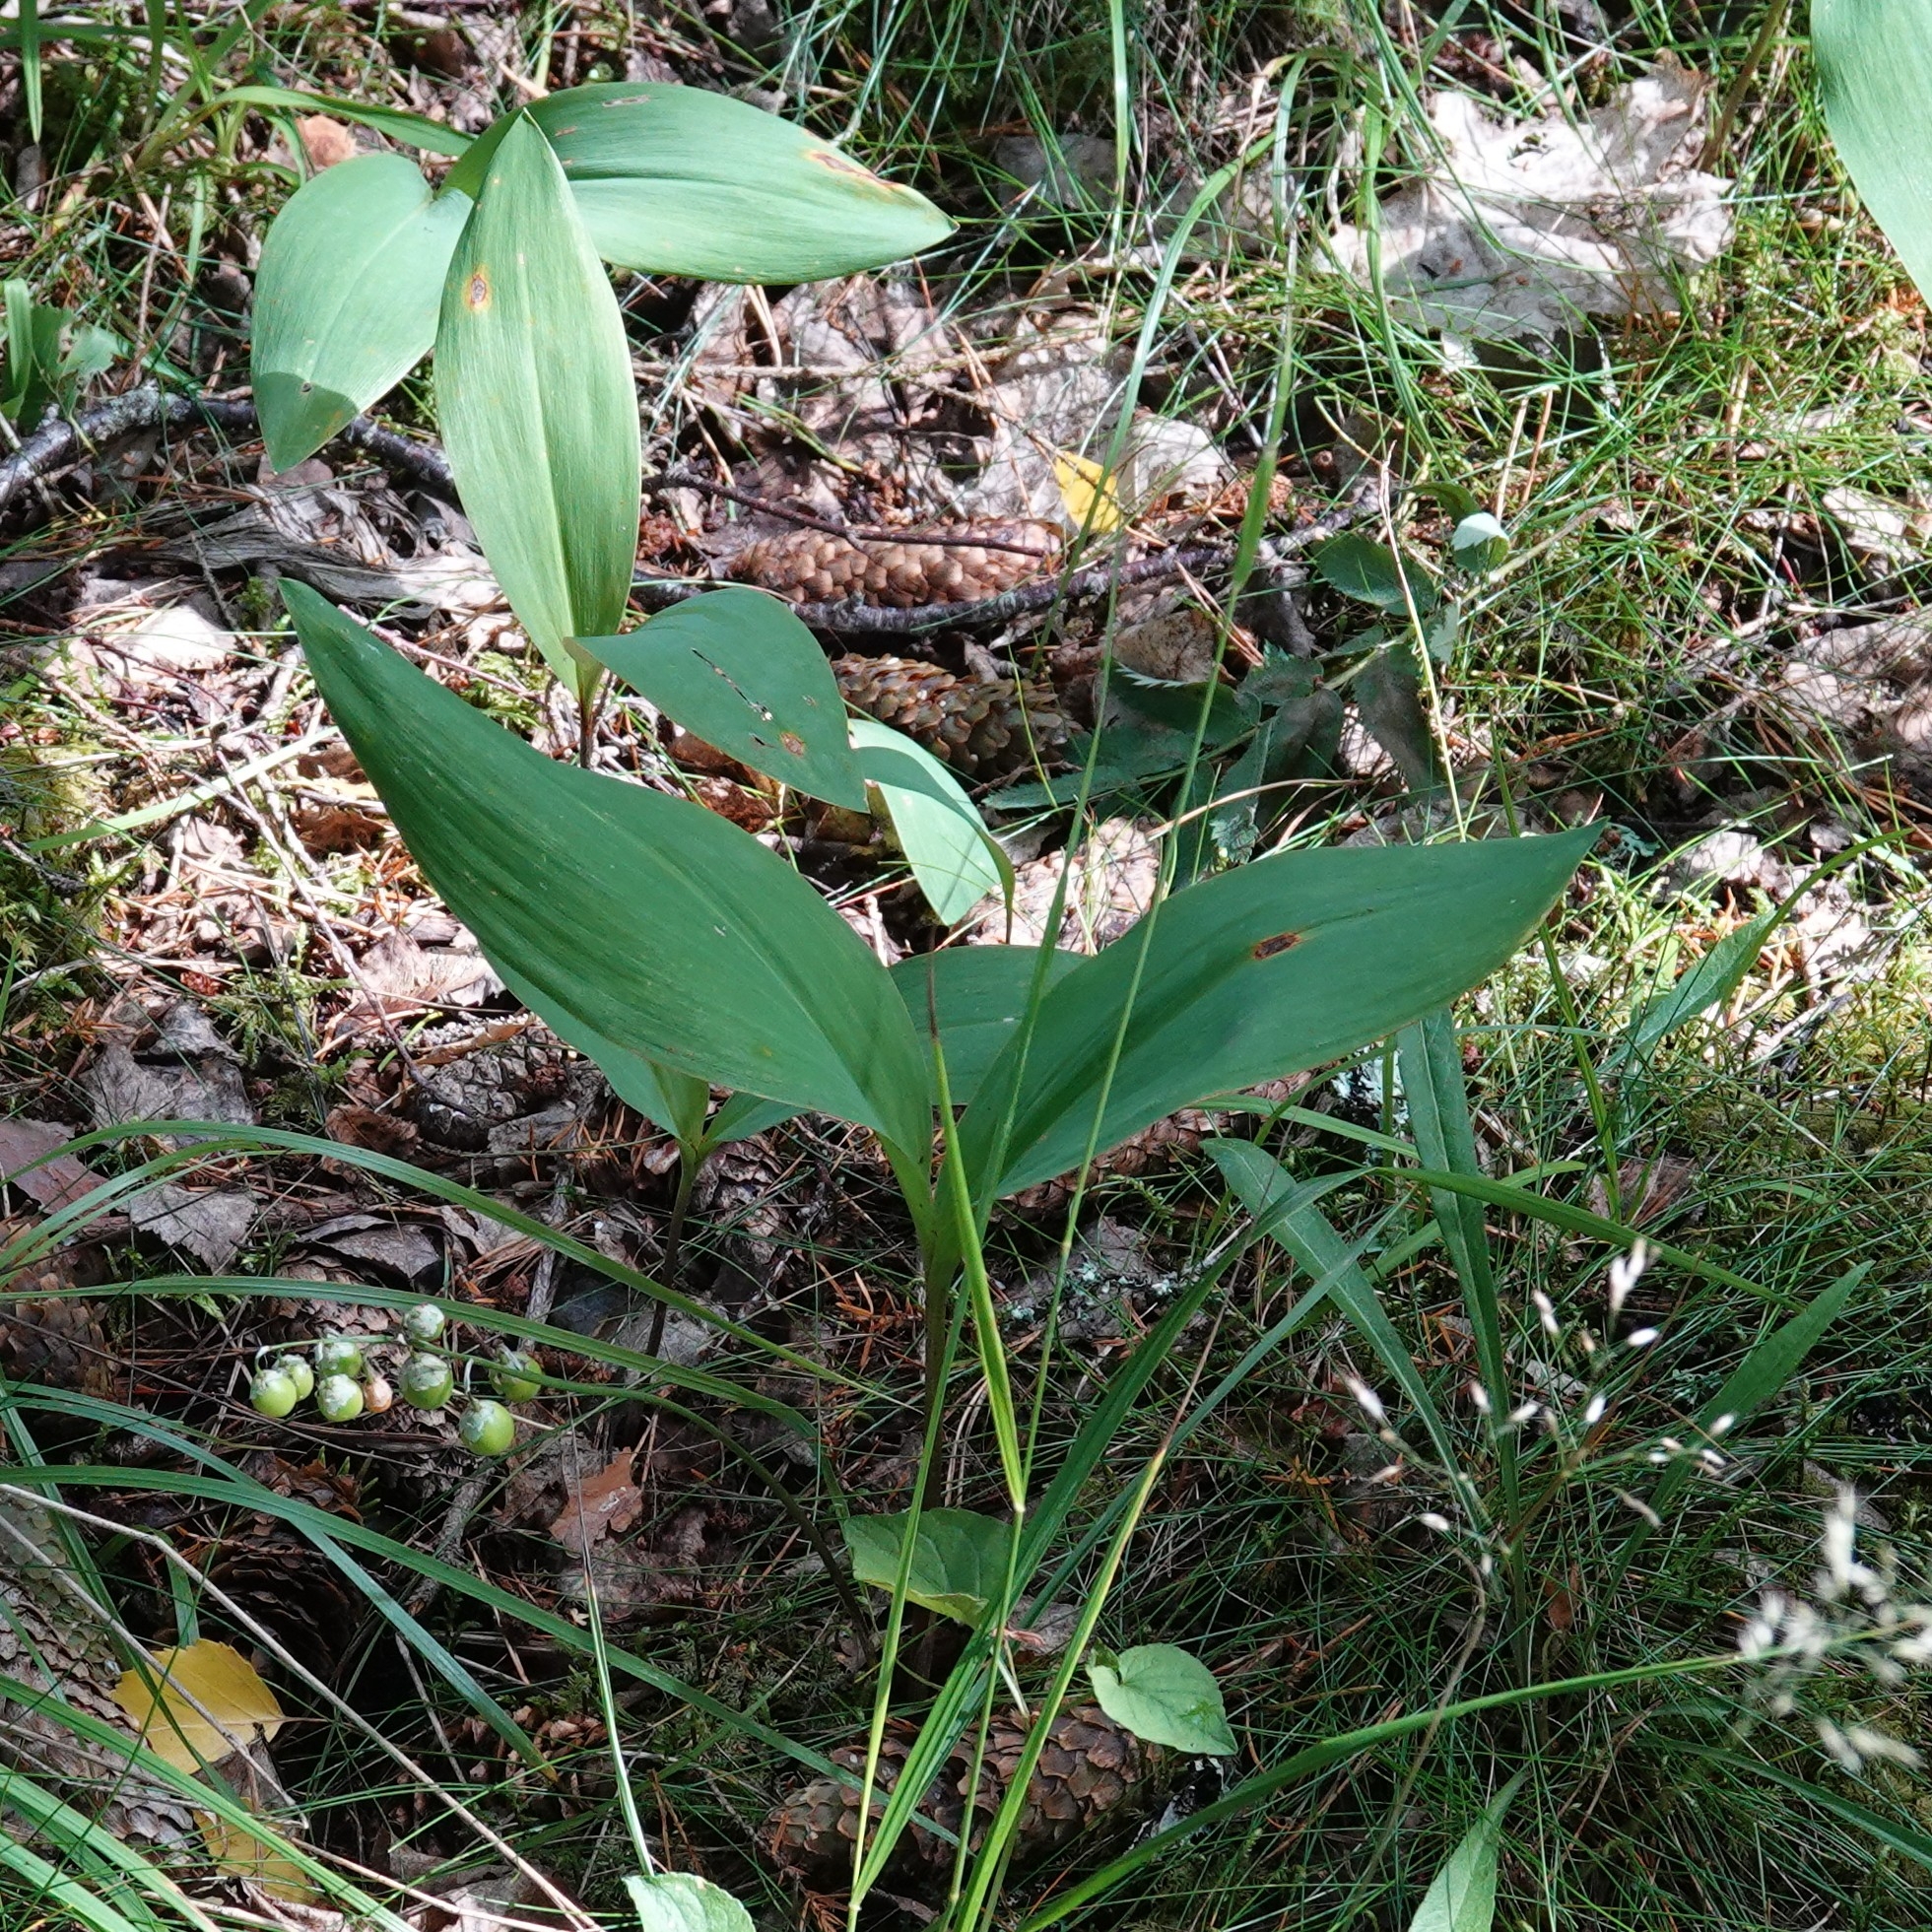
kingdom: Plantae
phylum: Tracheophyta
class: Liliopsida
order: Asparagales
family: Asparagaceae
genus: Convallaria
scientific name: Convallaria majalis
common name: Lily-of-the-valley
